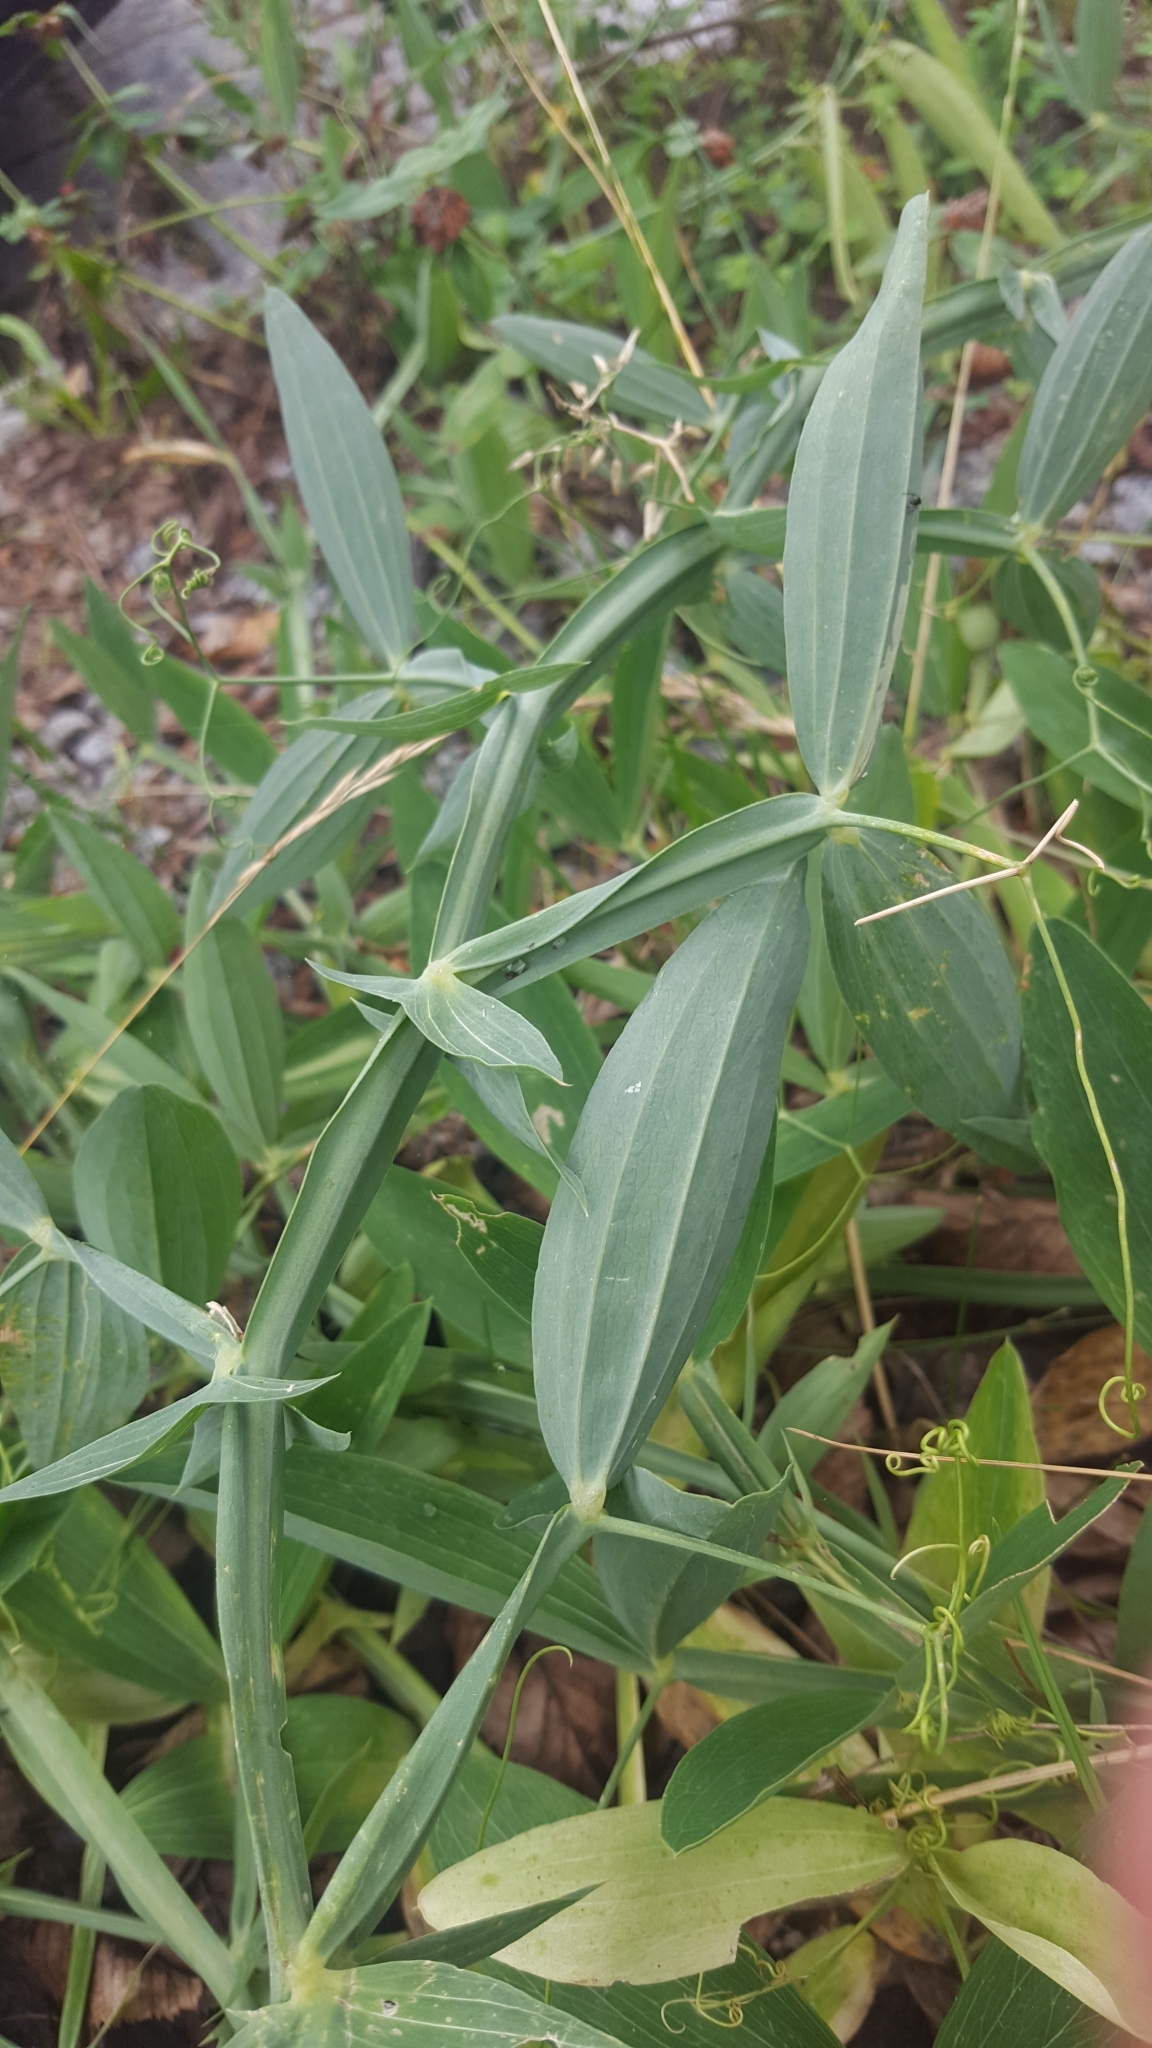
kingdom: Plantae
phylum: Tracheophyta
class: Magnoliopsida
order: Fabales
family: Fabaceae
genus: Lathyrus
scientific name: Lathyrus latifolius
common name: Perennial pea
